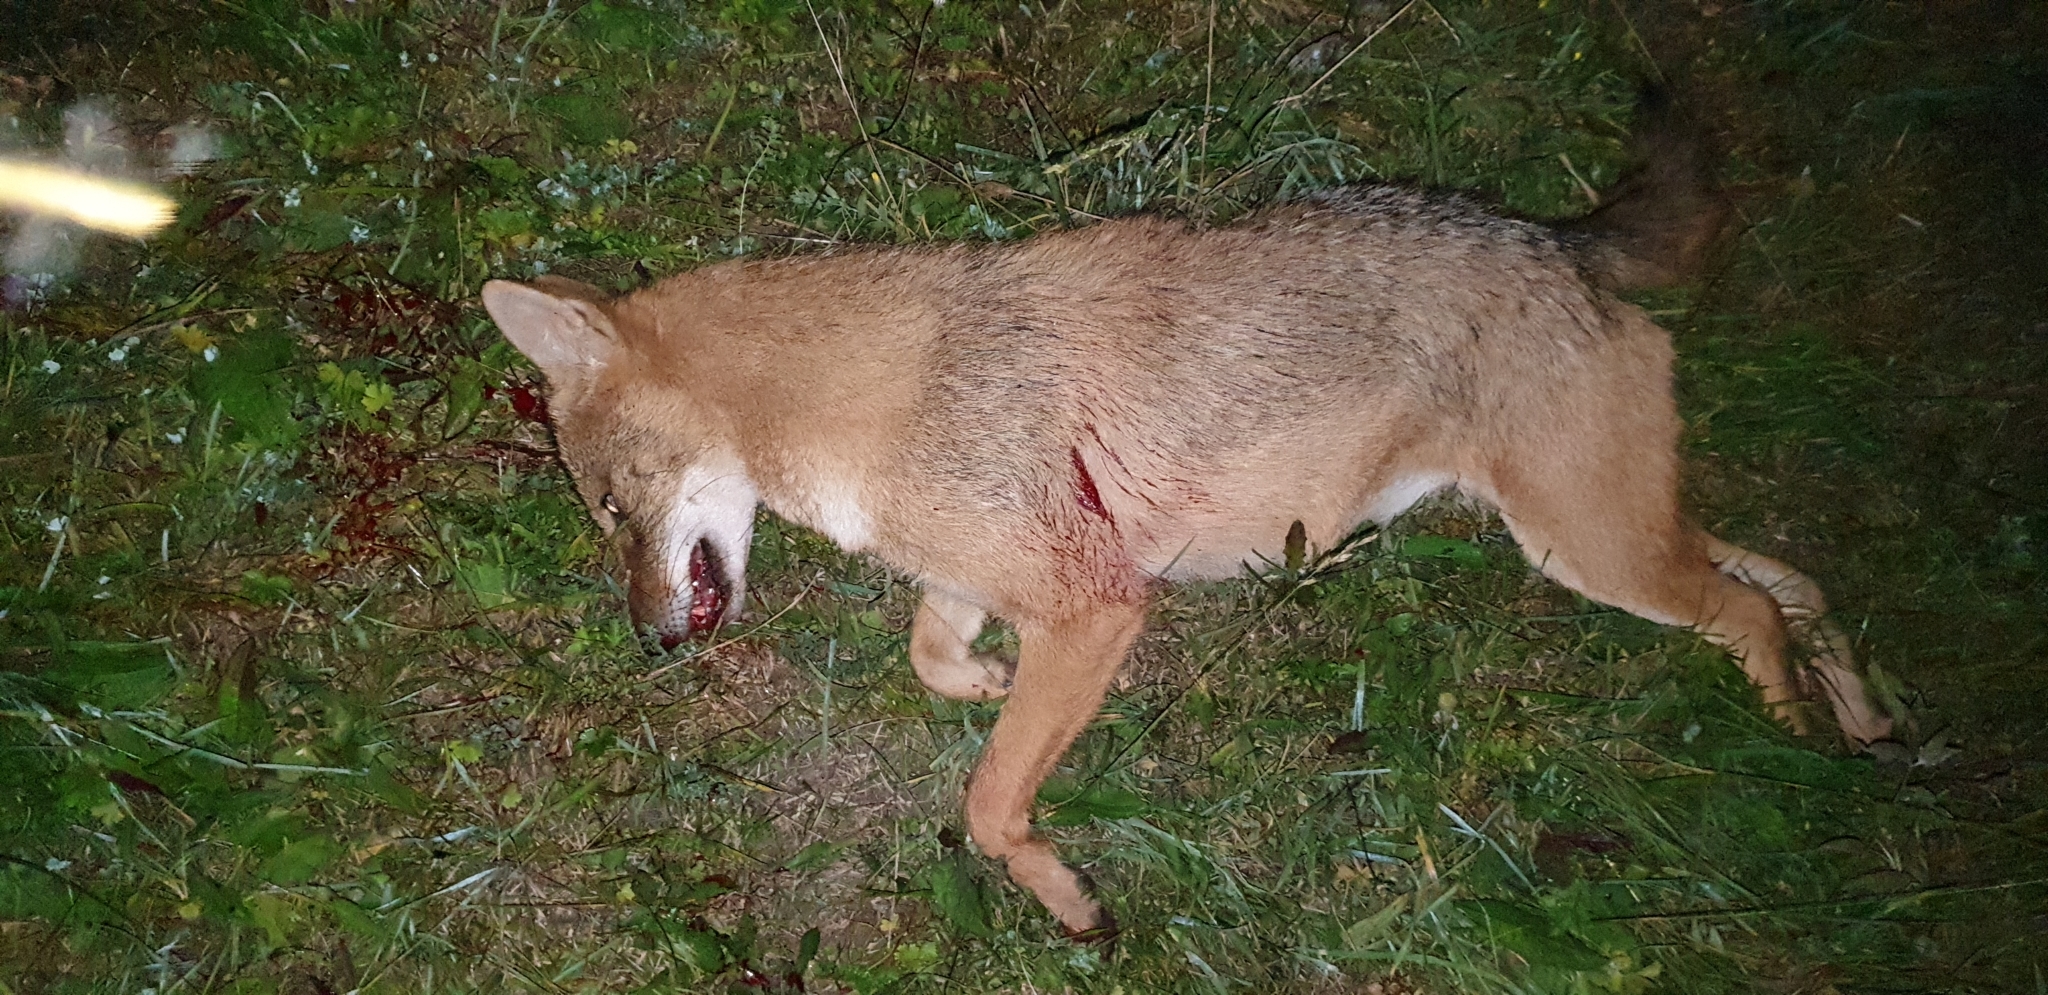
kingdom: Animalia
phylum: Chordata
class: Mammalia
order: Carnivora
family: Canidae
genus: Canis
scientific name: Canis aureus
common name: Golden jackal
